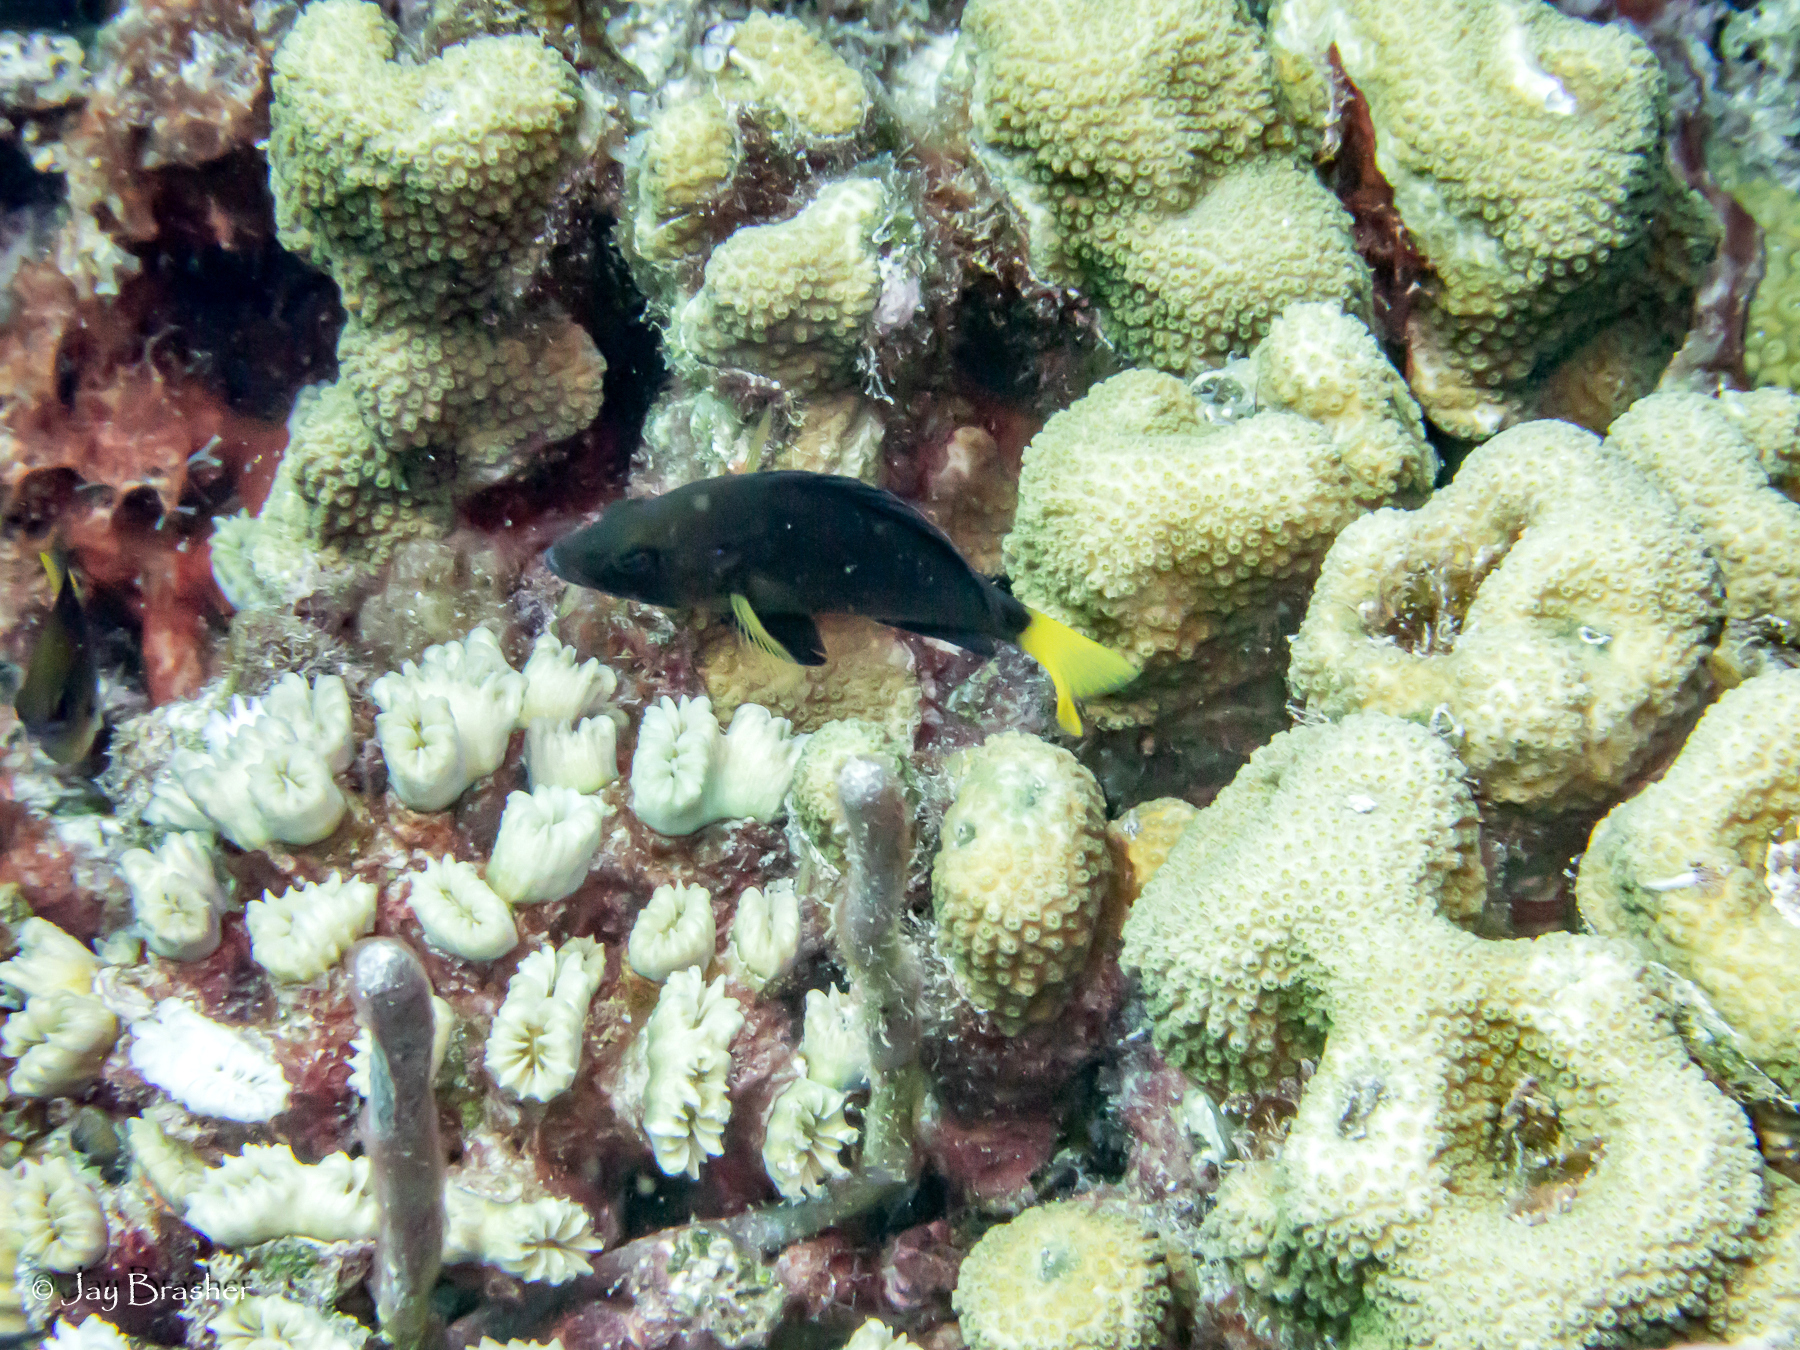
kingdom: Animalia
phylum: Cnidaria
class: Anthozoa
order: Scleractinia
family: Merulinidae
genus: Orbicella
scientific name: Orbicella annularis
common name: Boulder star coral
